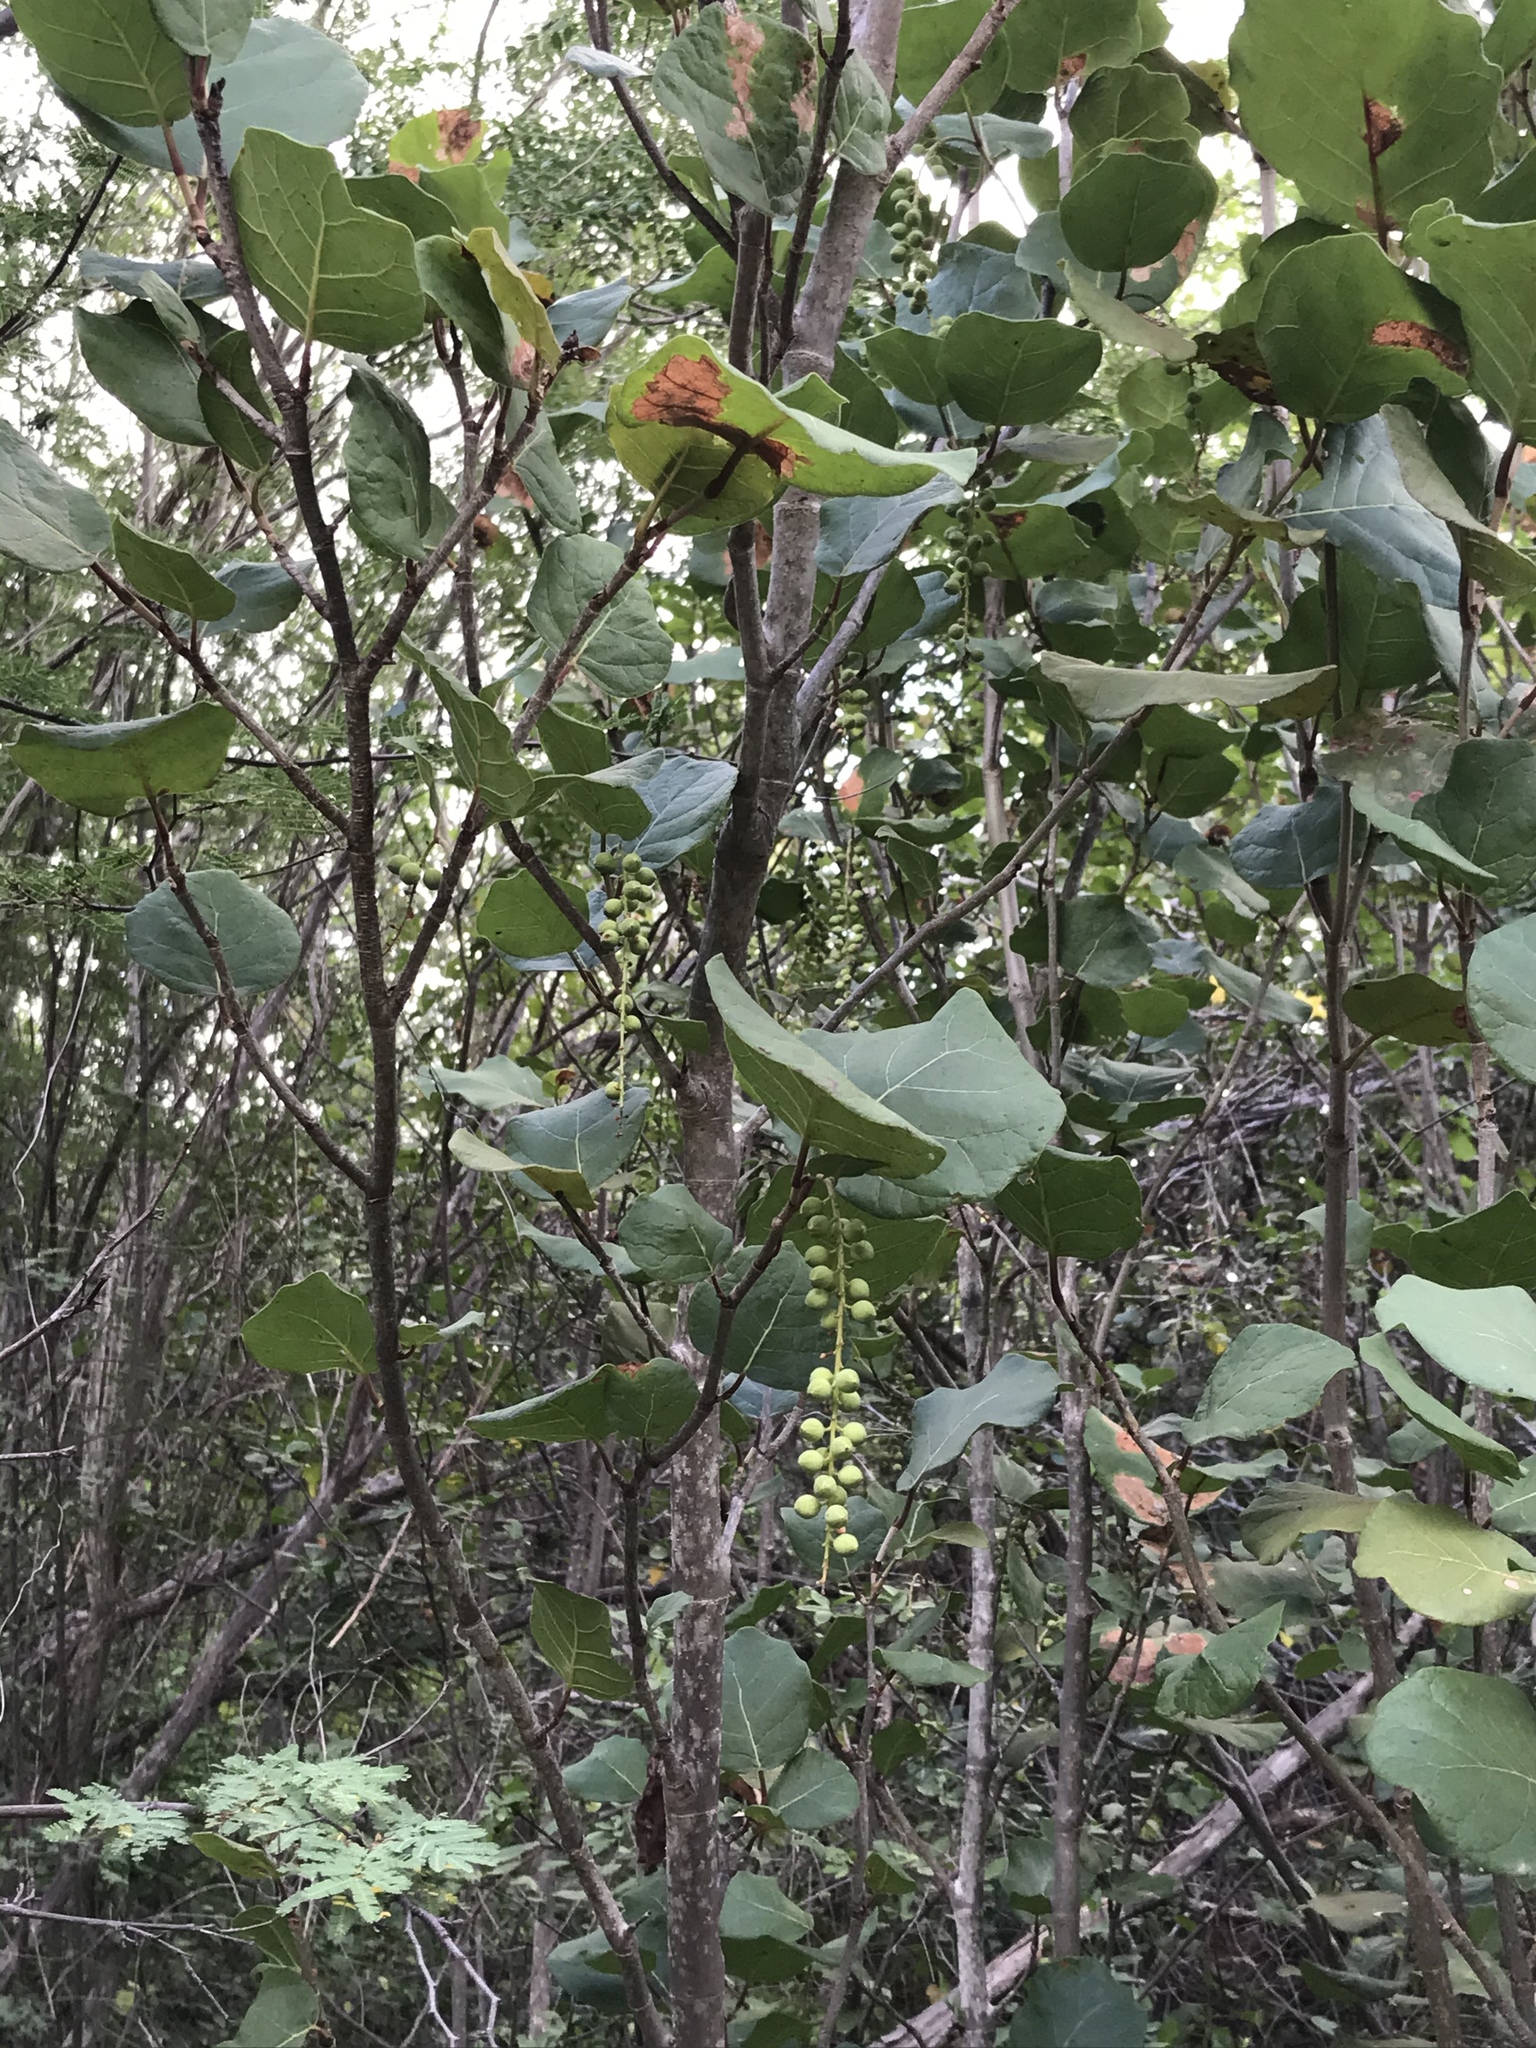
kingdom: Plantae
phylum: Tracheophyta
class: Magnoliopsida
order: Caryophyllales
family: Polygonaceae
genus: Coccoloba
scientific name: Coccoloba goldmanii
